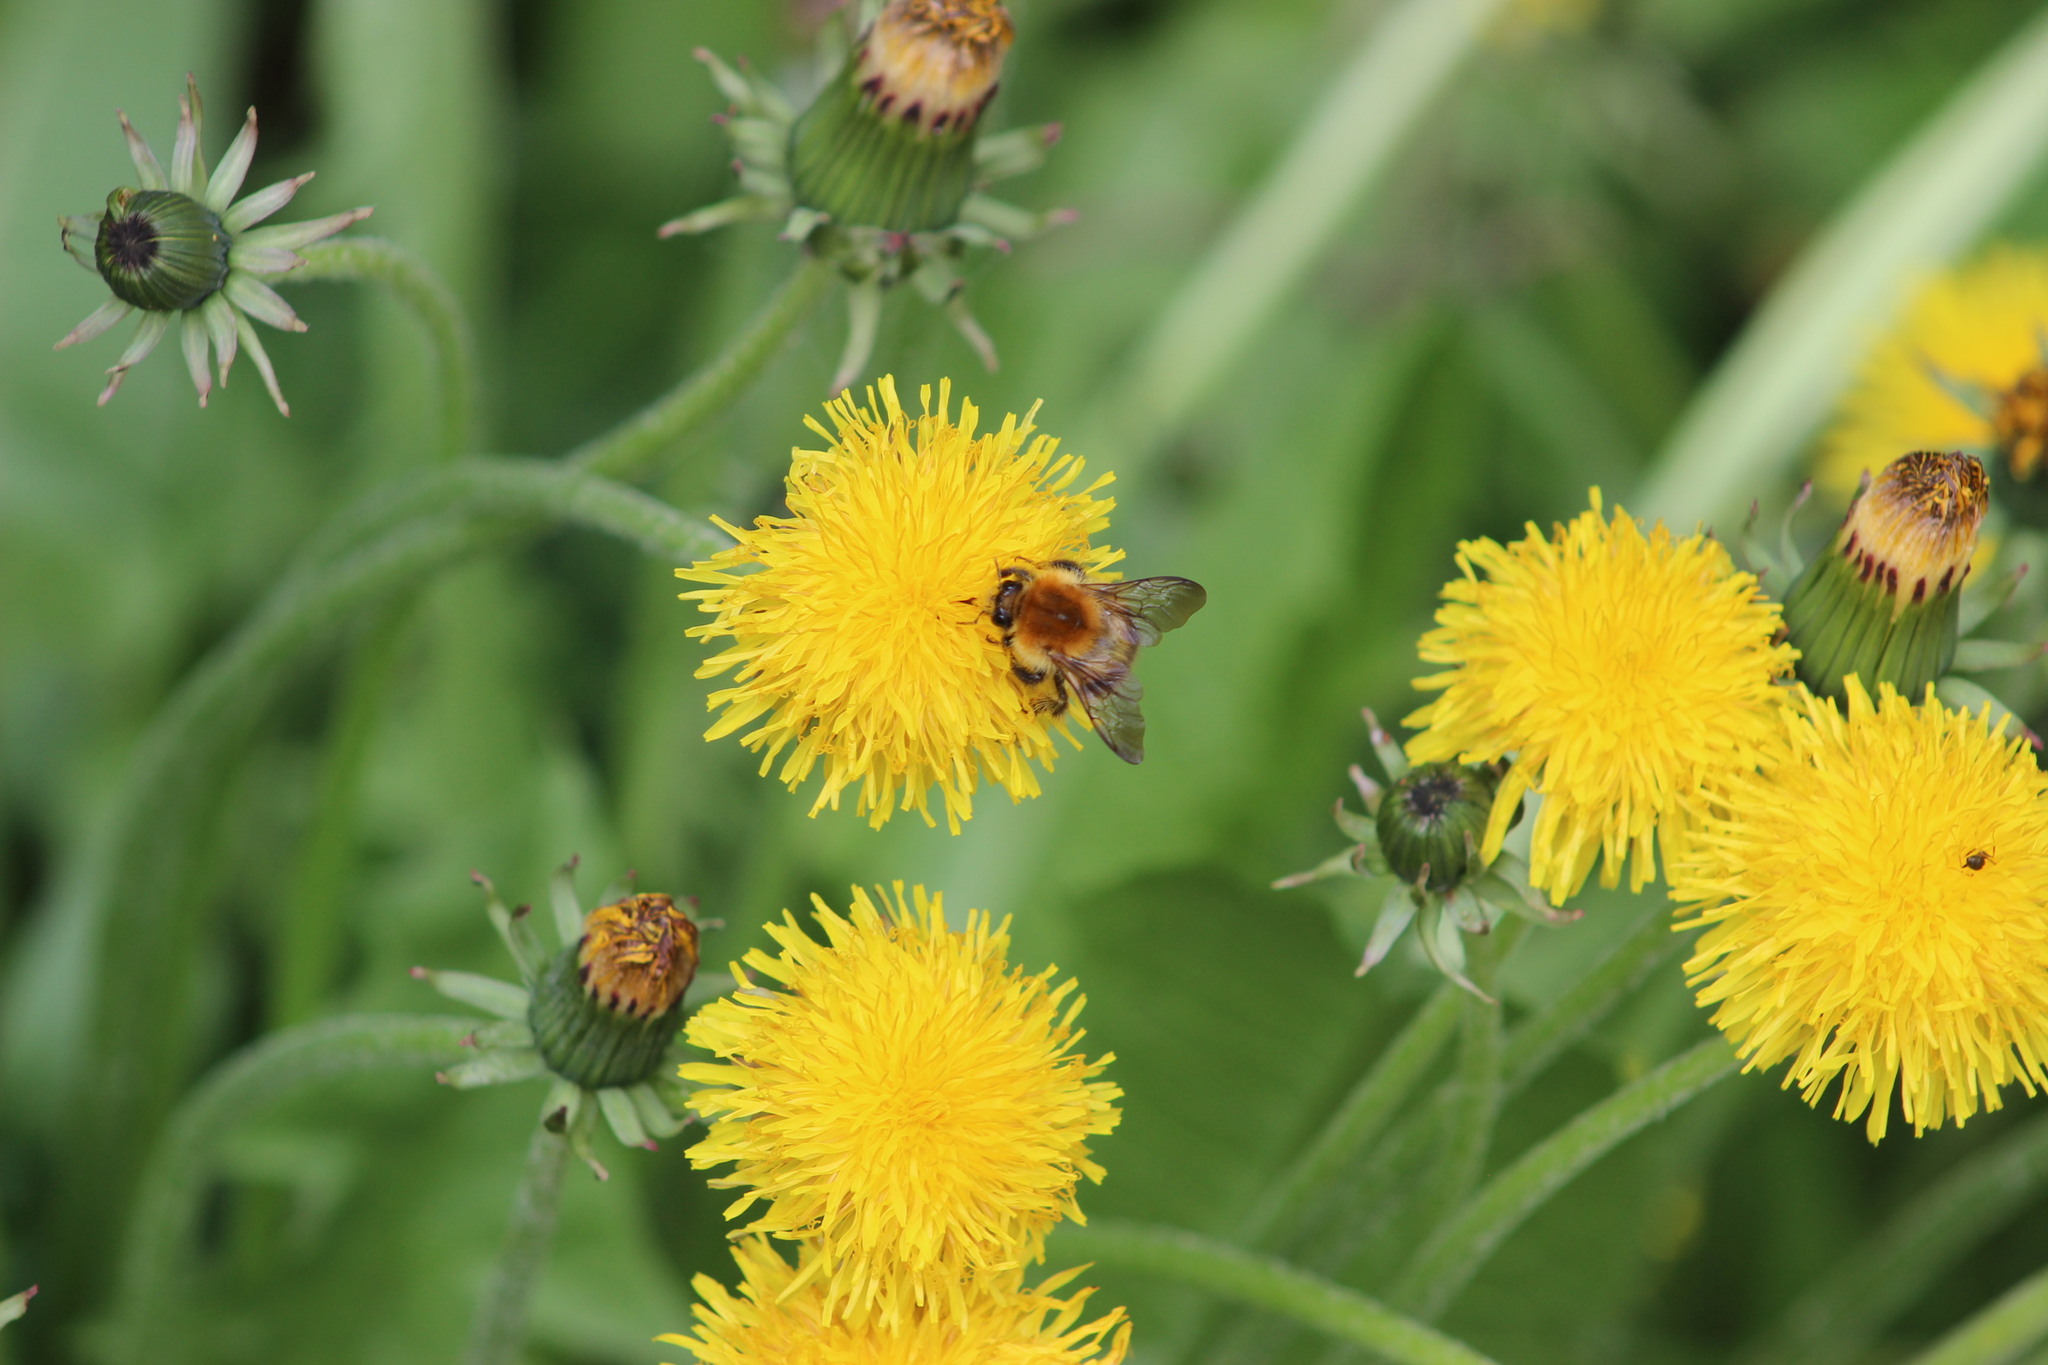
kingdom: Animalia
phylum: Arthropoda
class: Insecta
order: Hymenoptera
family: Apidae
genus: Bombus
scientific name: Bombus pascuorum
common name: Common carder bee
